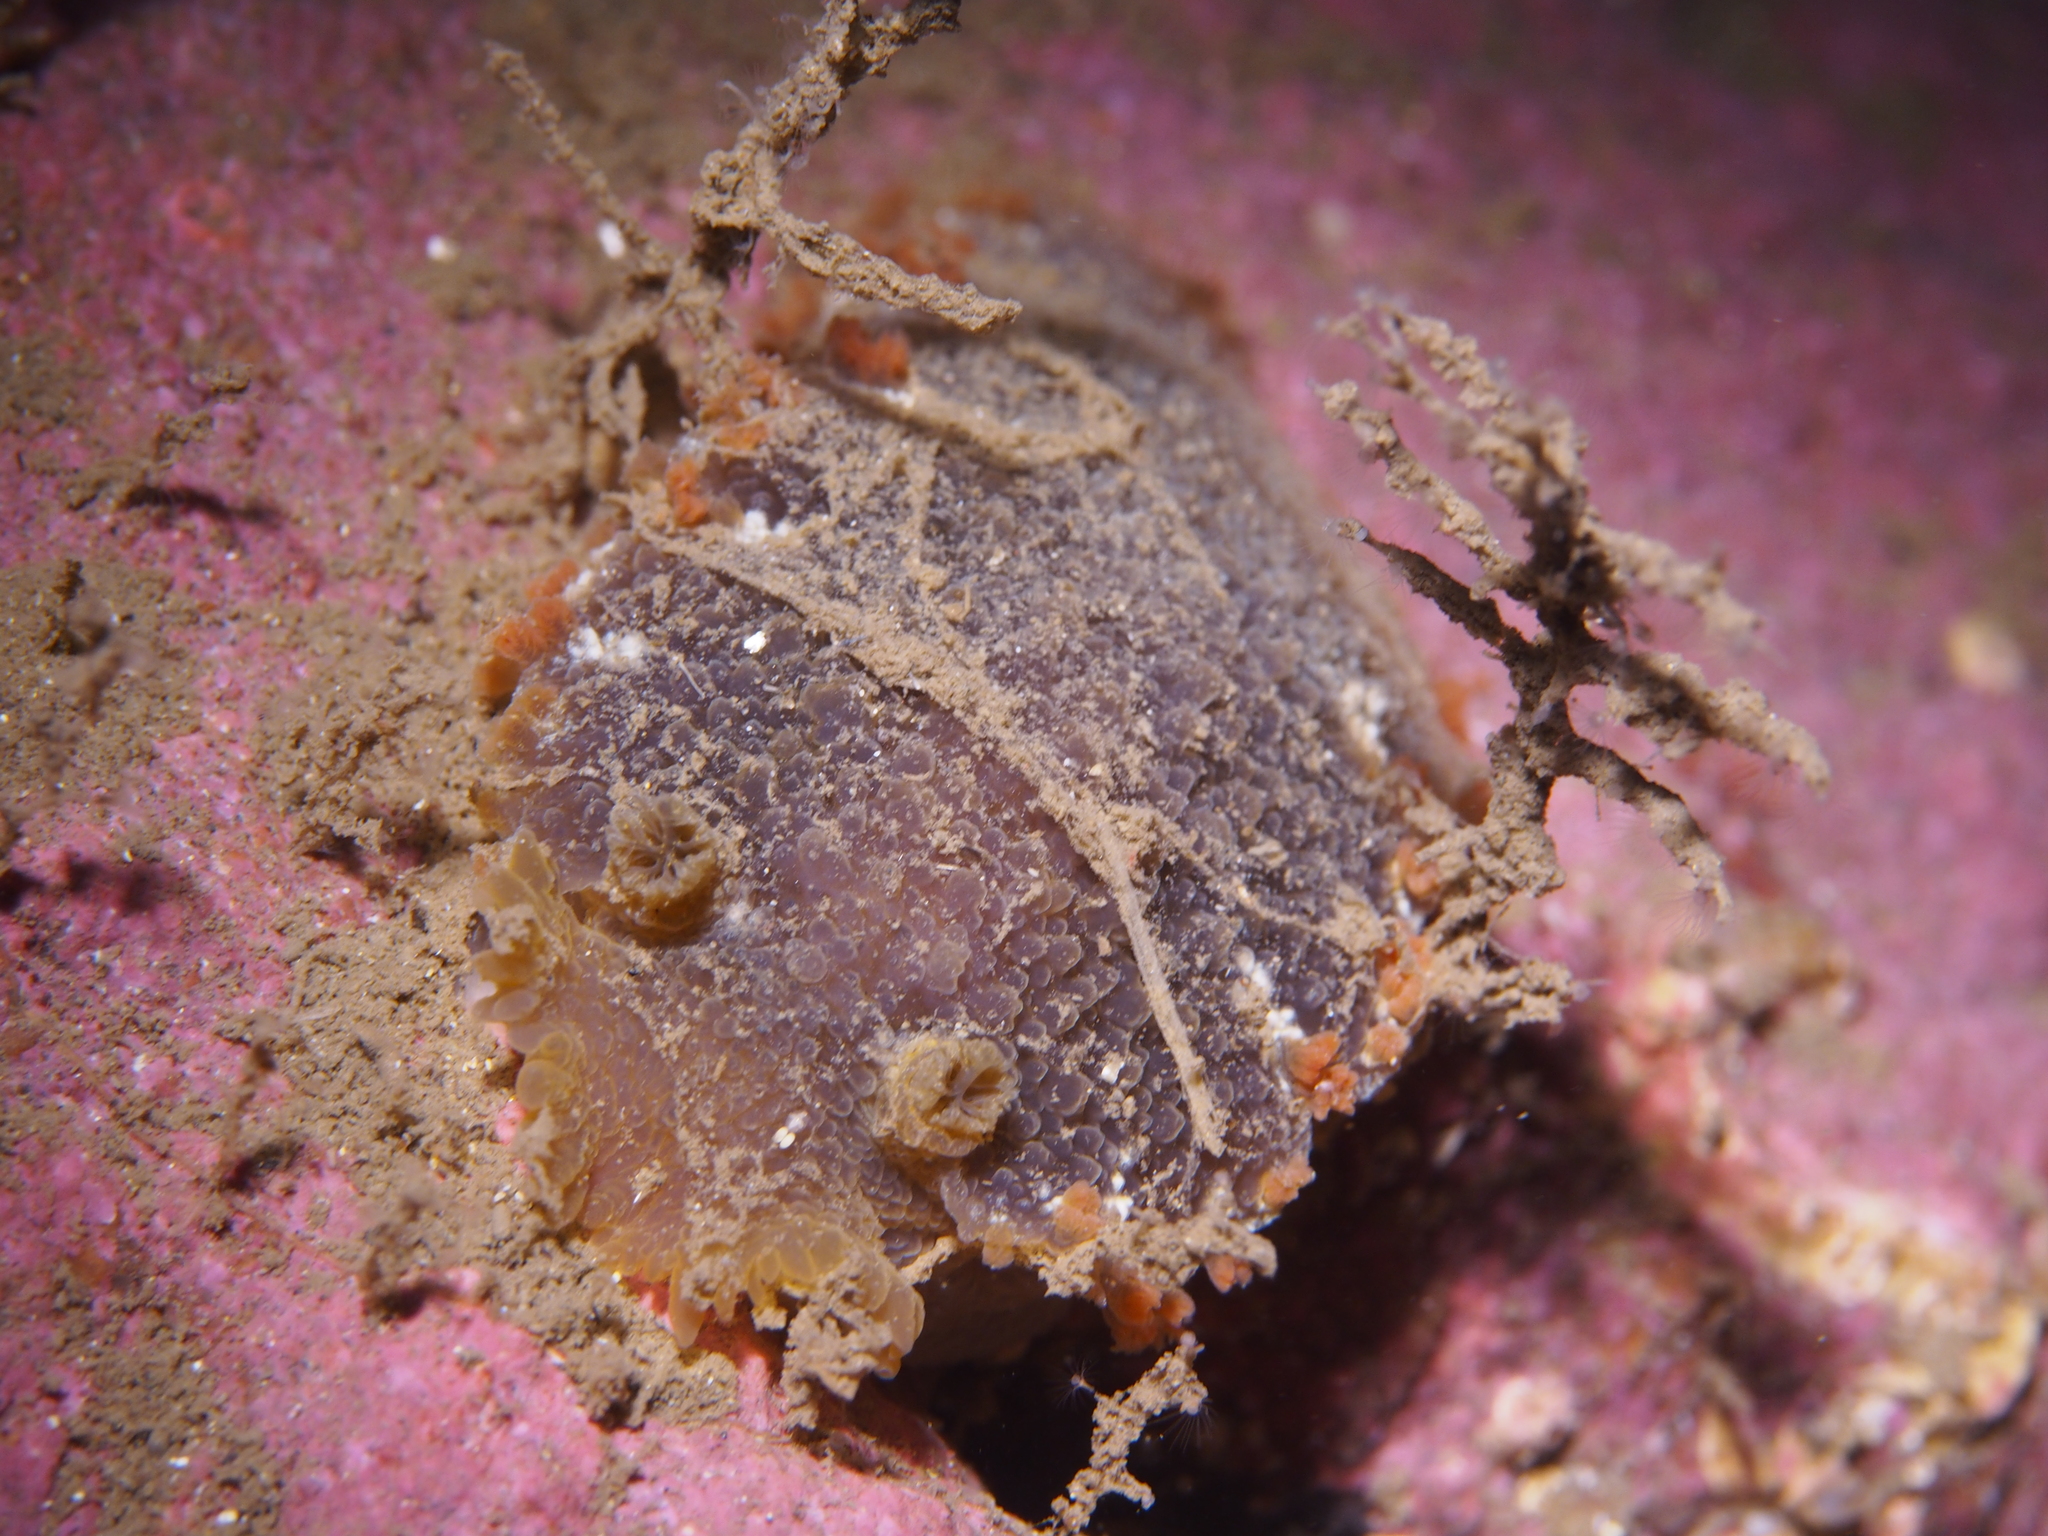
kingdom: Animalia
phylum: Mollusca
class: Gastropoda
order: Nudibranchia
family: Tritoniidae
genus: Tritonia
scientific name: Tritonia hombergii
